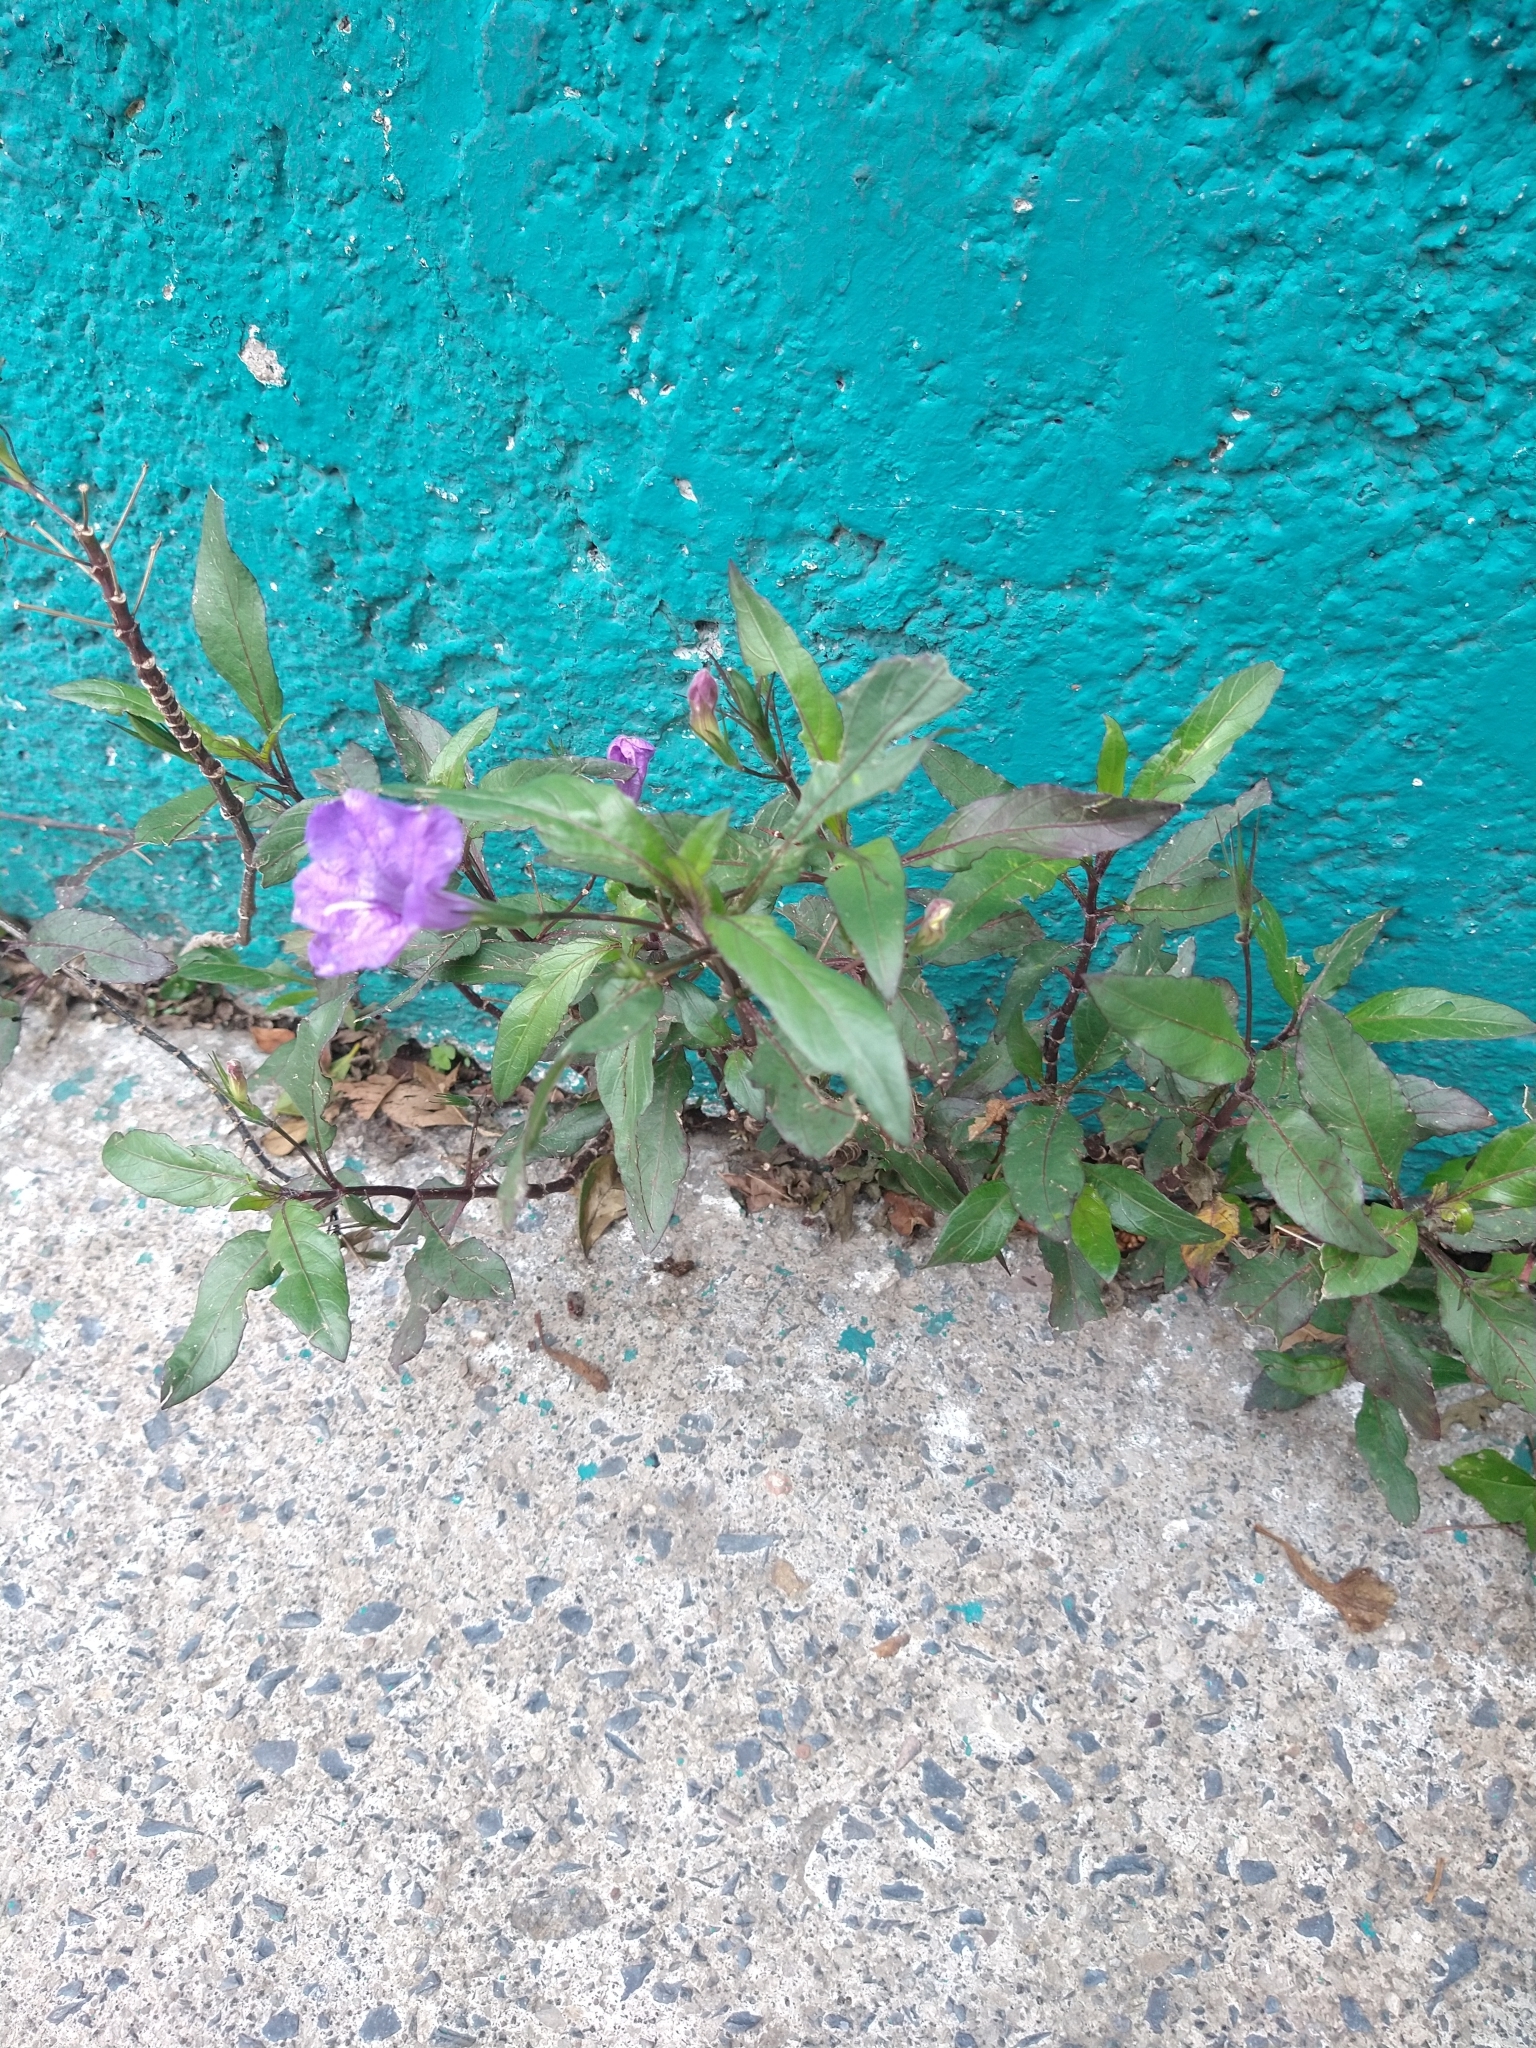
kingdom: Plantae
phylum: Tracheophyta
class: Magnoliopsida
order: Lamiales
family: Acanthaceae
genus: Ruellia
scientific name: Ruellia simplex
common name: Softseed wild petunia
